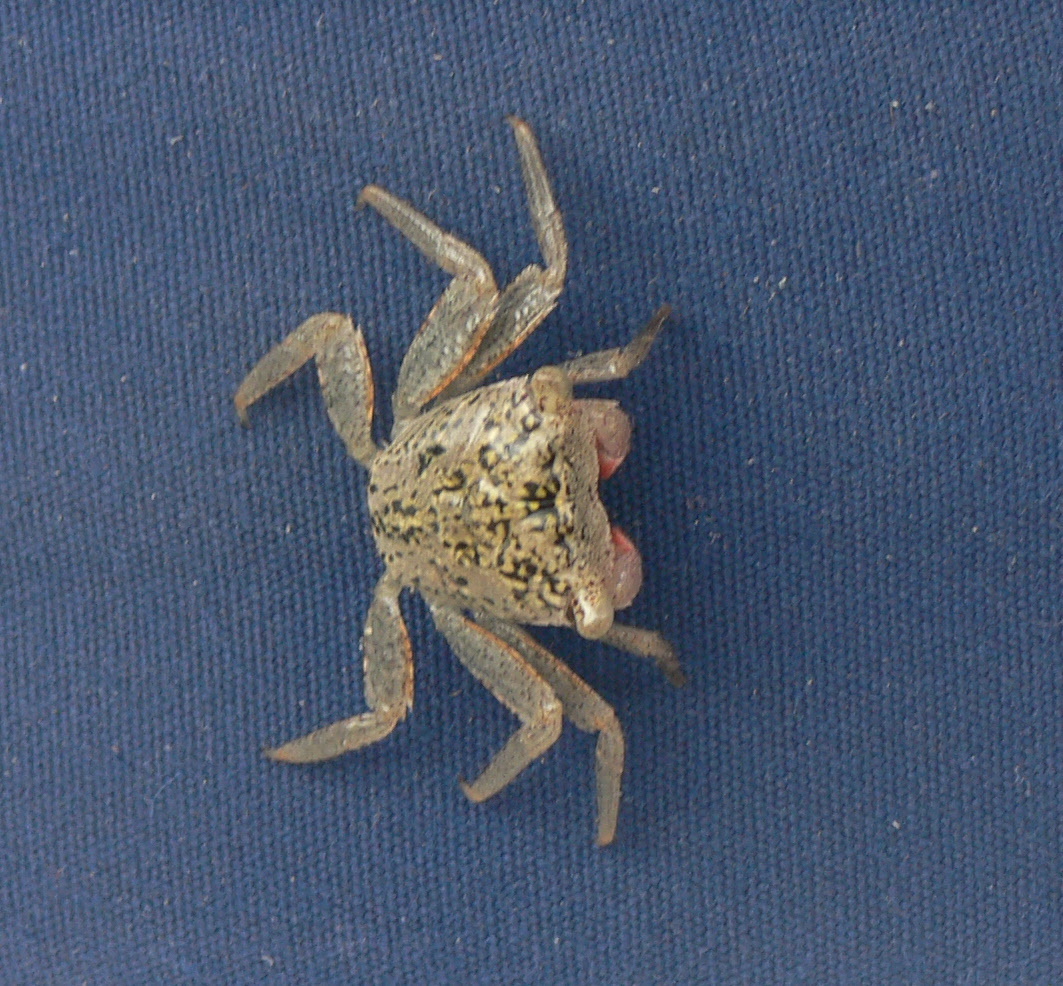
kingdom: Animalia
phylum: Arthropoda
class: Malacostraca
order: Decapoda
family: Sesarmidae
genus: Aratus
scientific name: Aratus pisonii
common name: Mangrove crab
